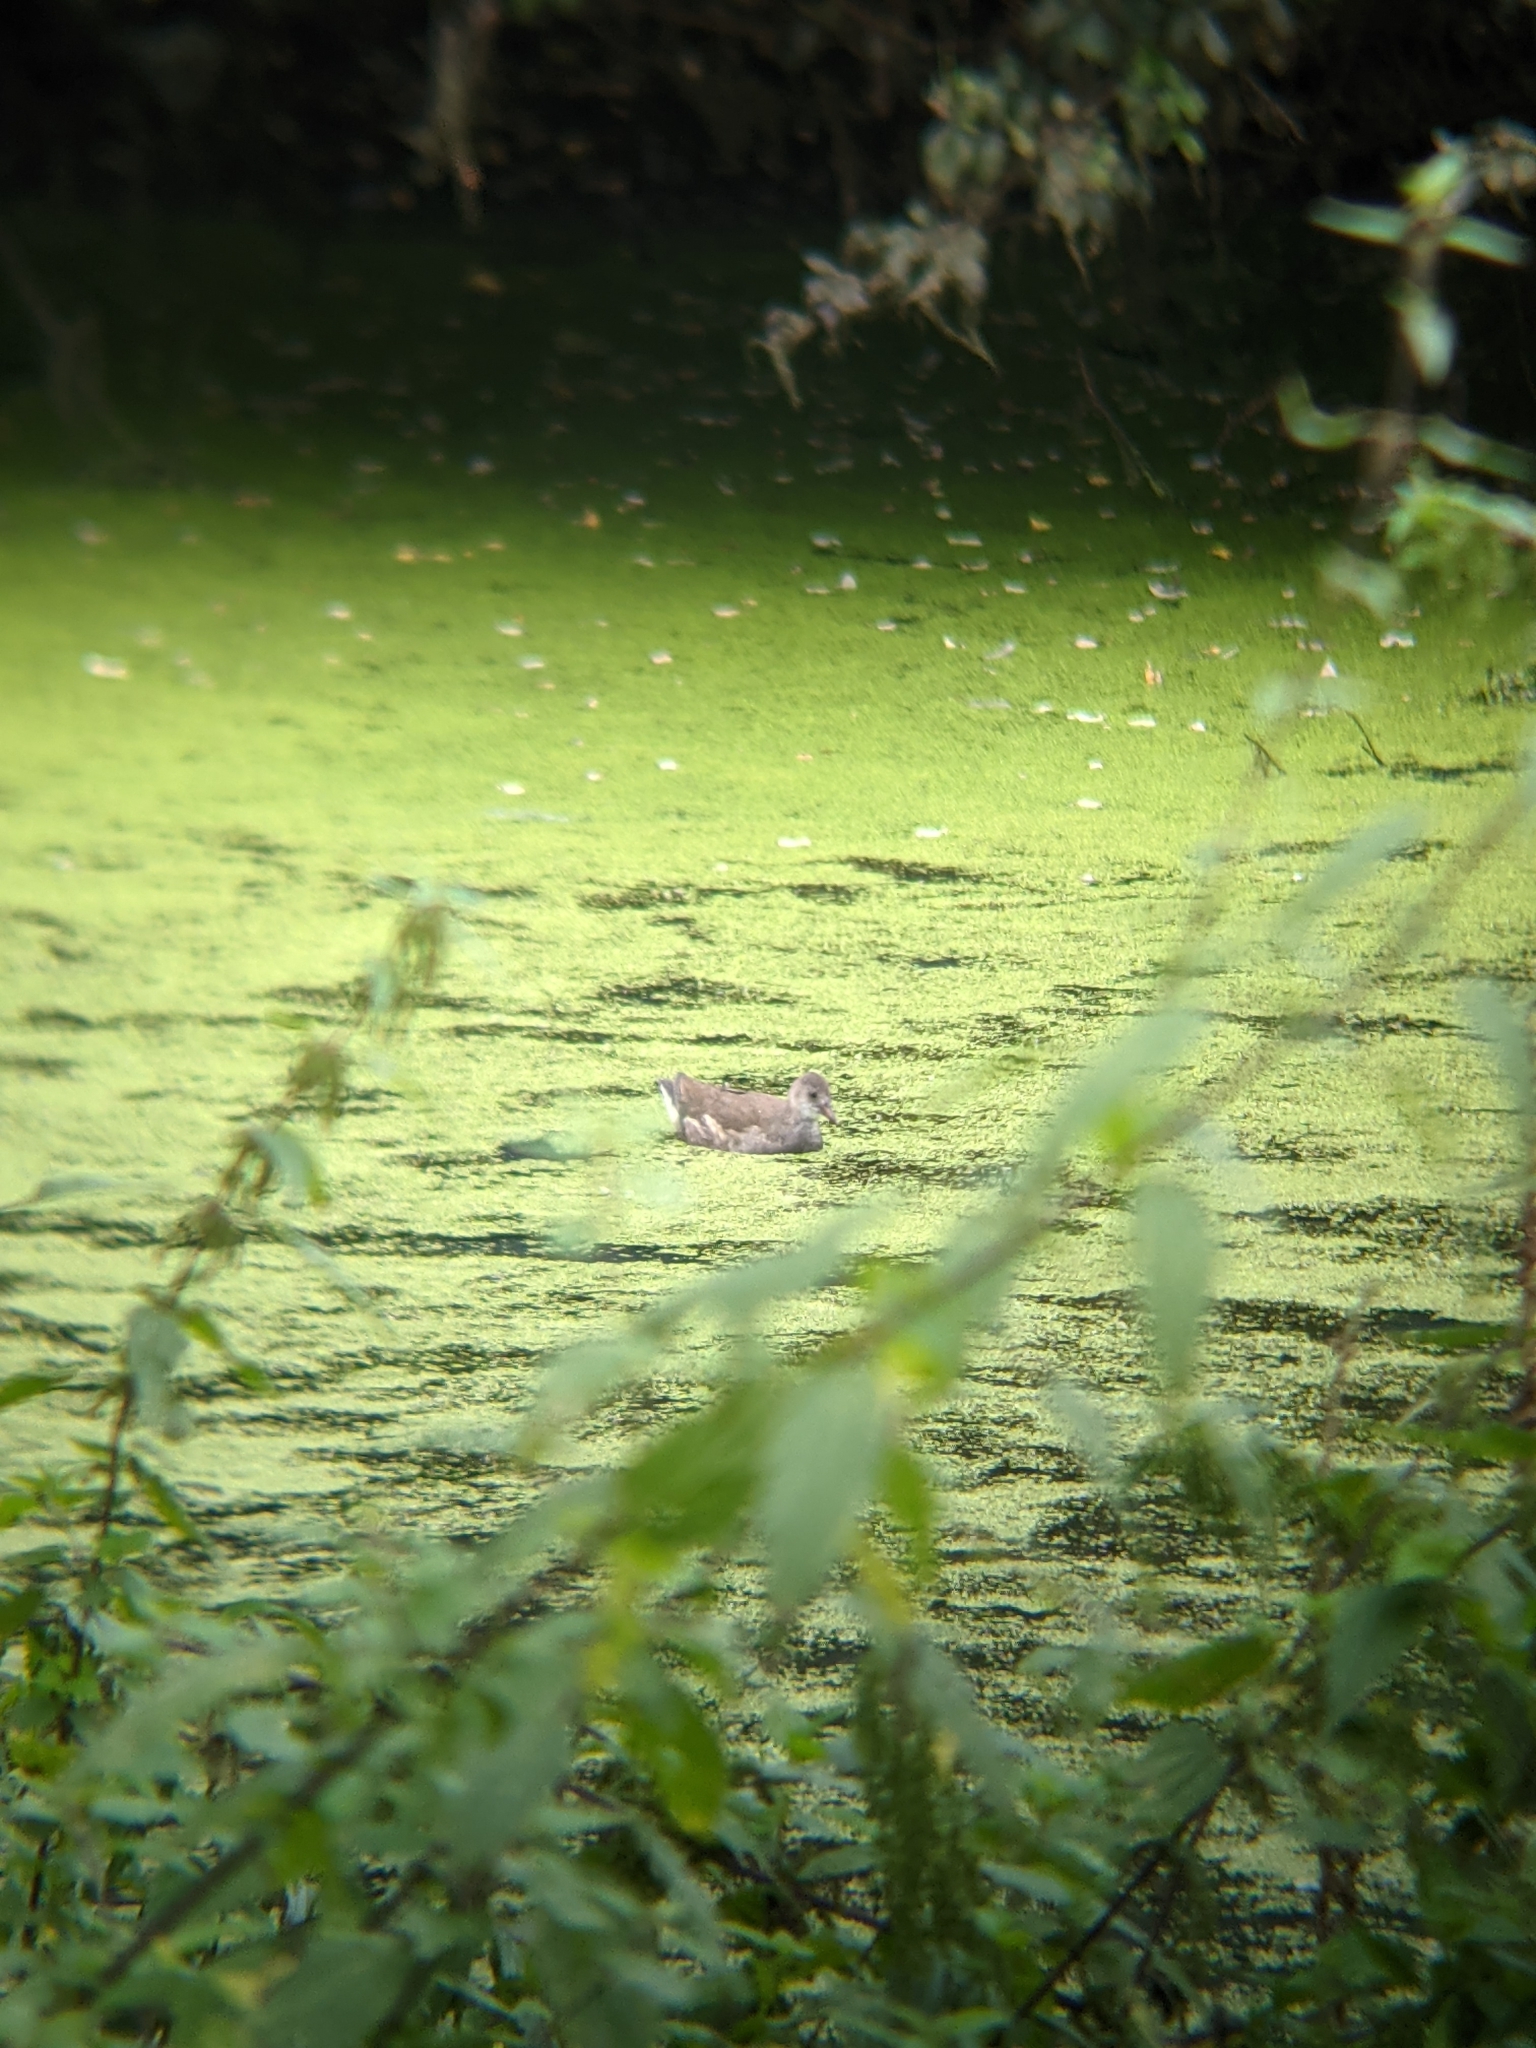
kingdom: Animalia
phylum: Chordata
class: Aves
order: Gruiformes
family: Rallidae
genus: Gallinula
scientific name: Gallinula chloropus
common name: Common moorhen
